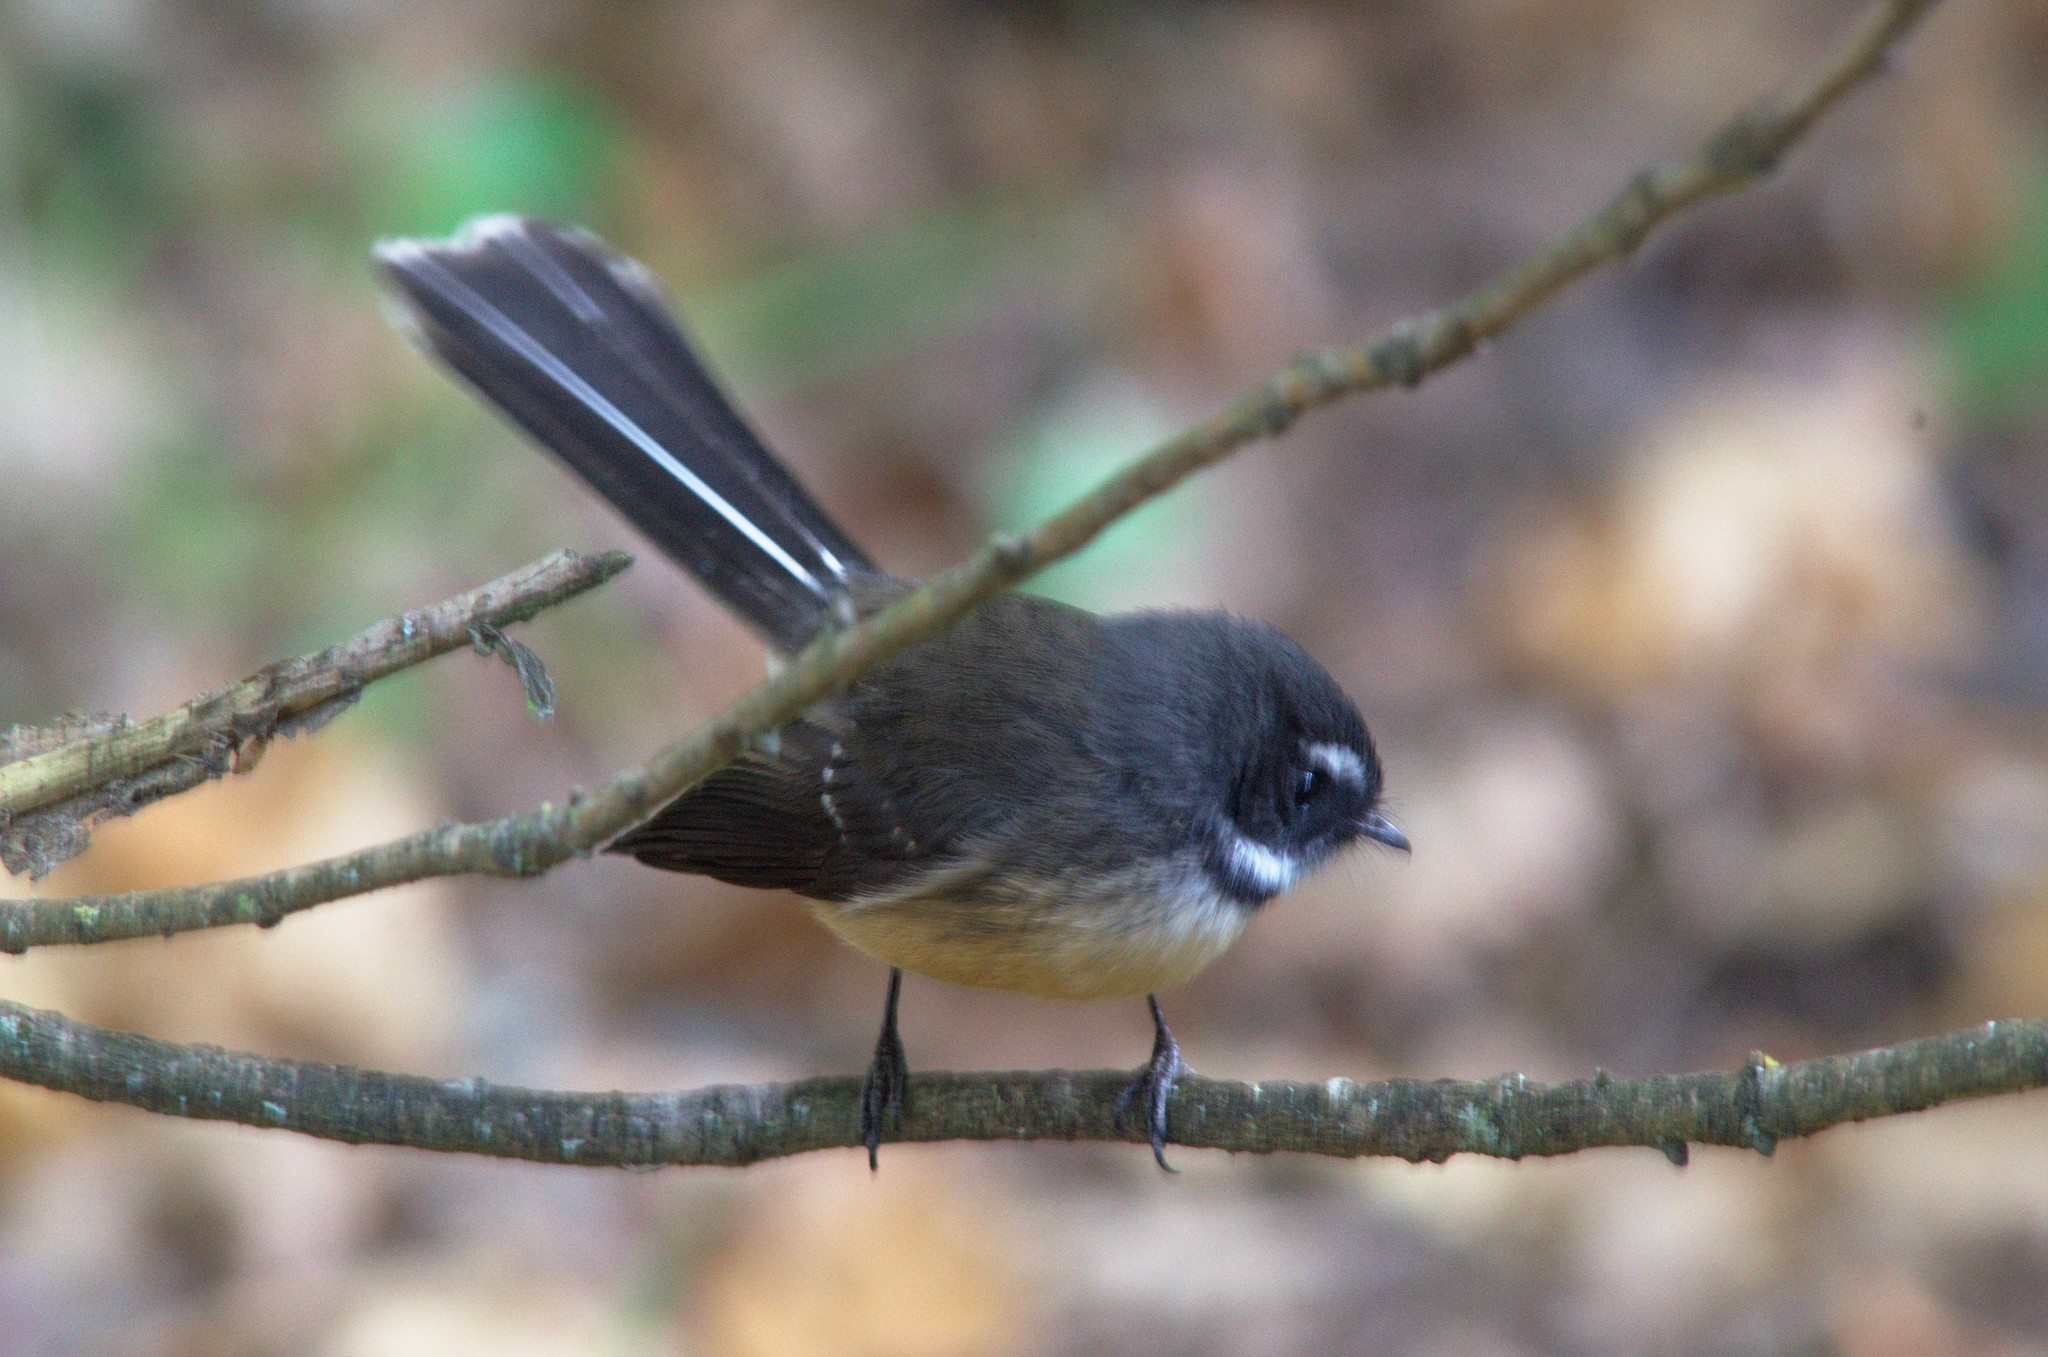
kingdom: Animalia
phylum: Chordata
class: Aves
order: Passeriformes
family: Rhipiduridae
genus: Rhipidura
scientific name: Rhipidura fuliginosa
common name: New zealand fantail
